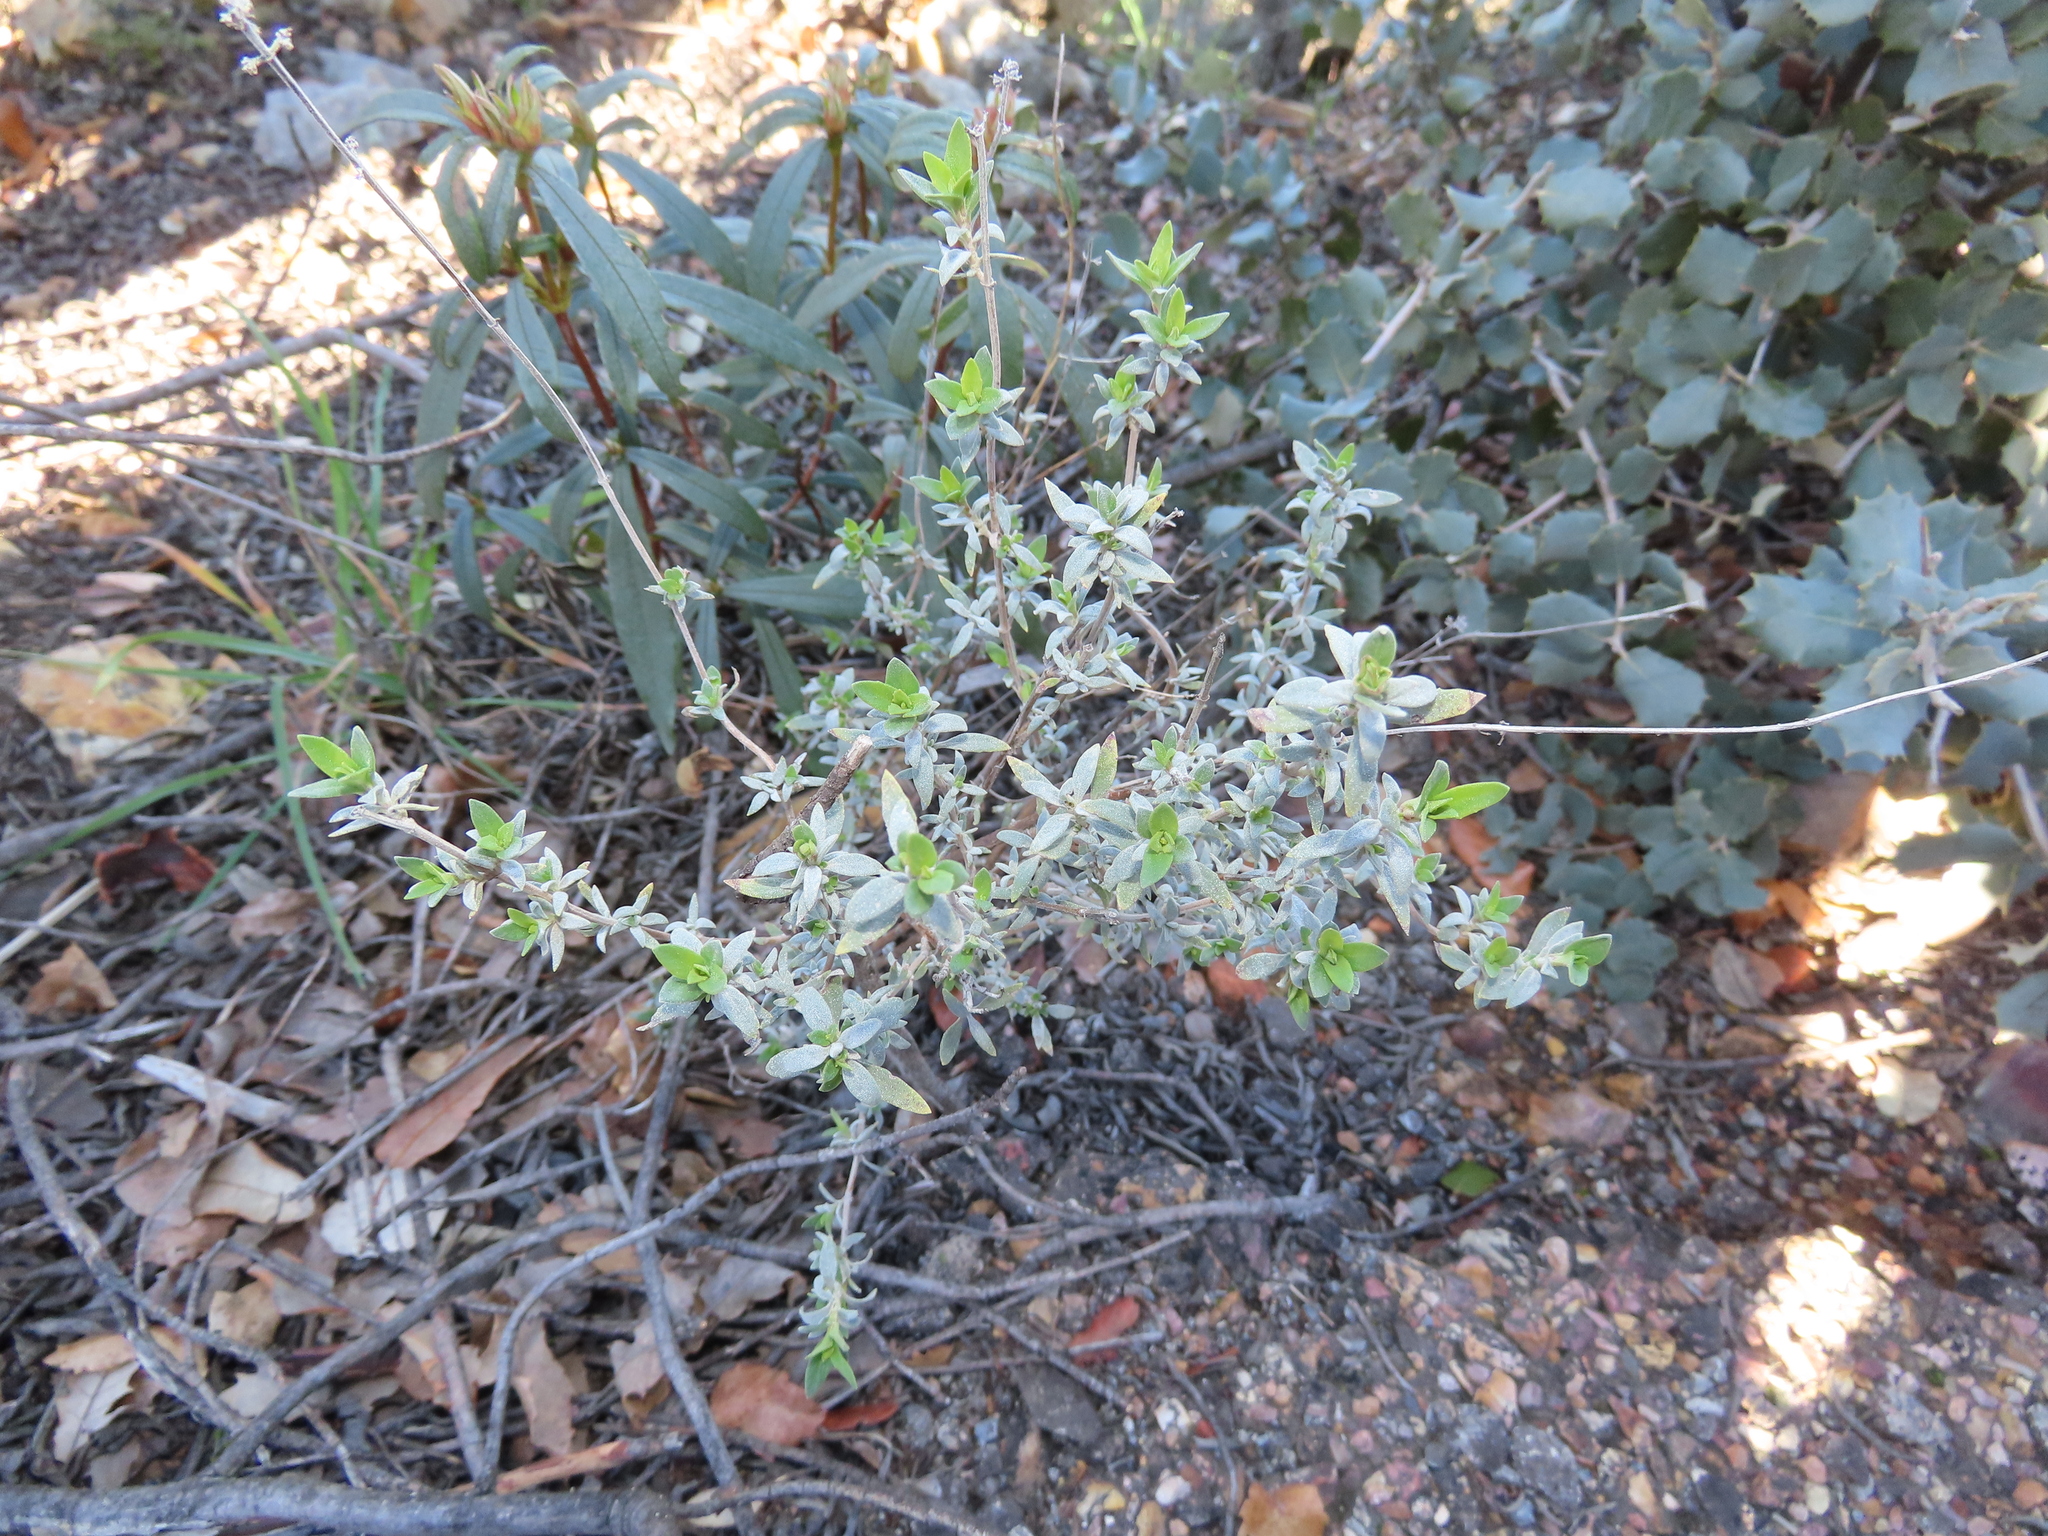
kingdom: Plantae
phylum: Tracheophyta
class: Magnoliopsida
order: Lamiales
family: Lamiaceae
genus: Thymus
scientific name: Thymus mastichina
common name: Mastic thyme
